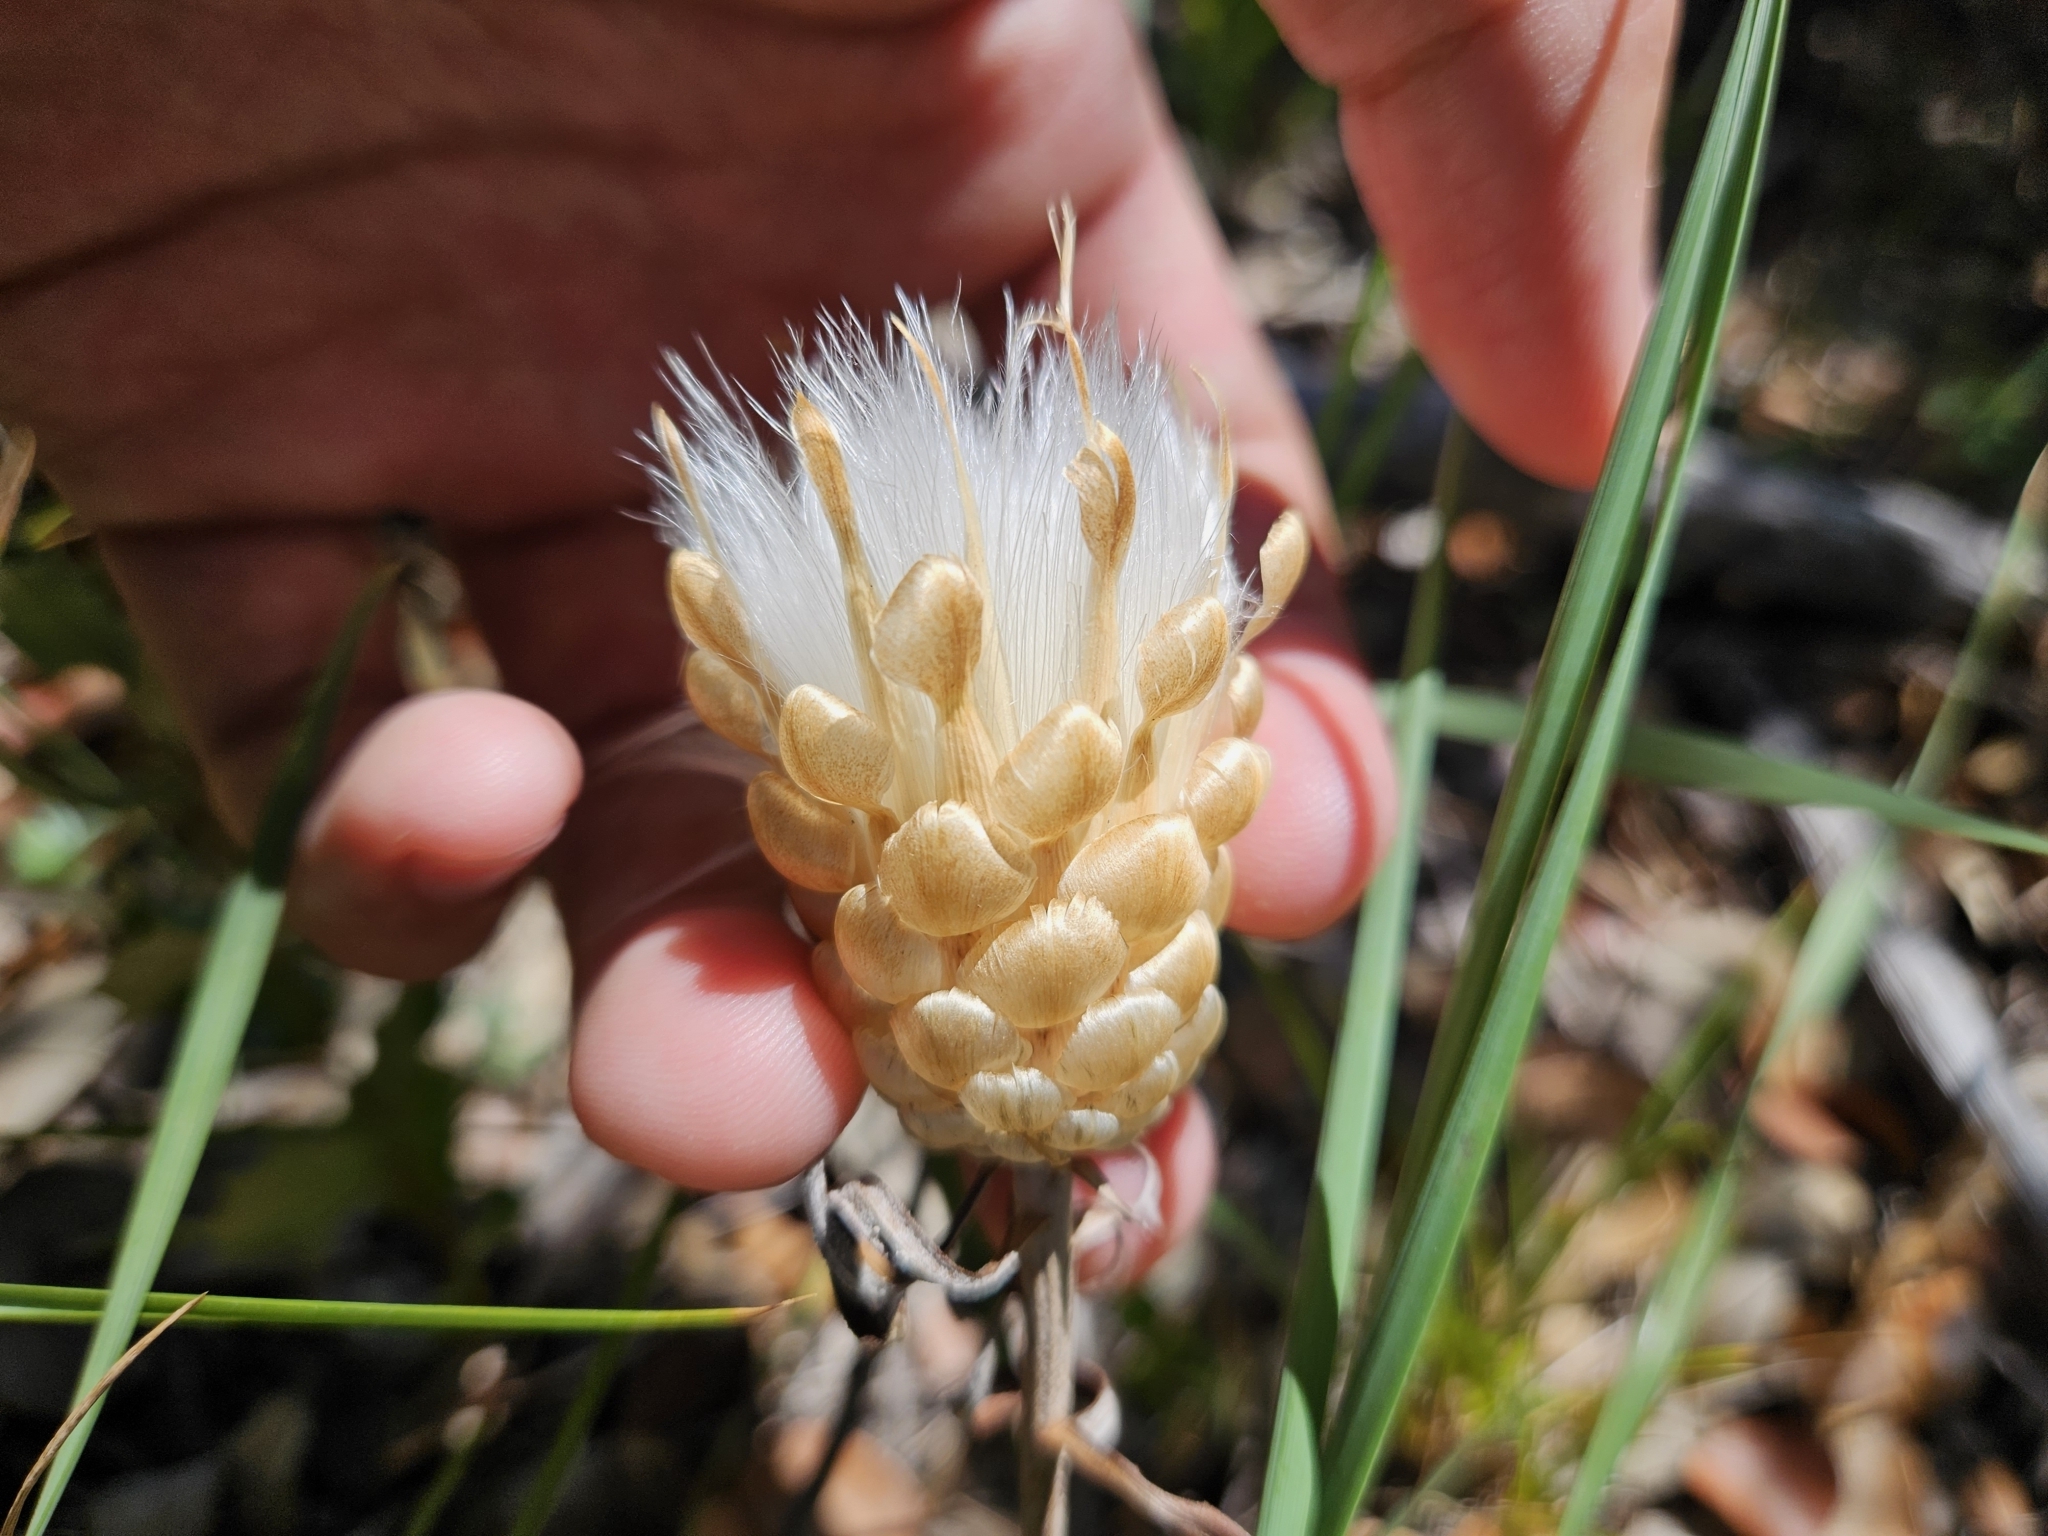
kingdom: Plantae
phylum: Tracheophyta
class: Magnoliopsida
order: Asterales
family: Asteraceae
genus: Leuzea
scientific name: Leuzea conifera
